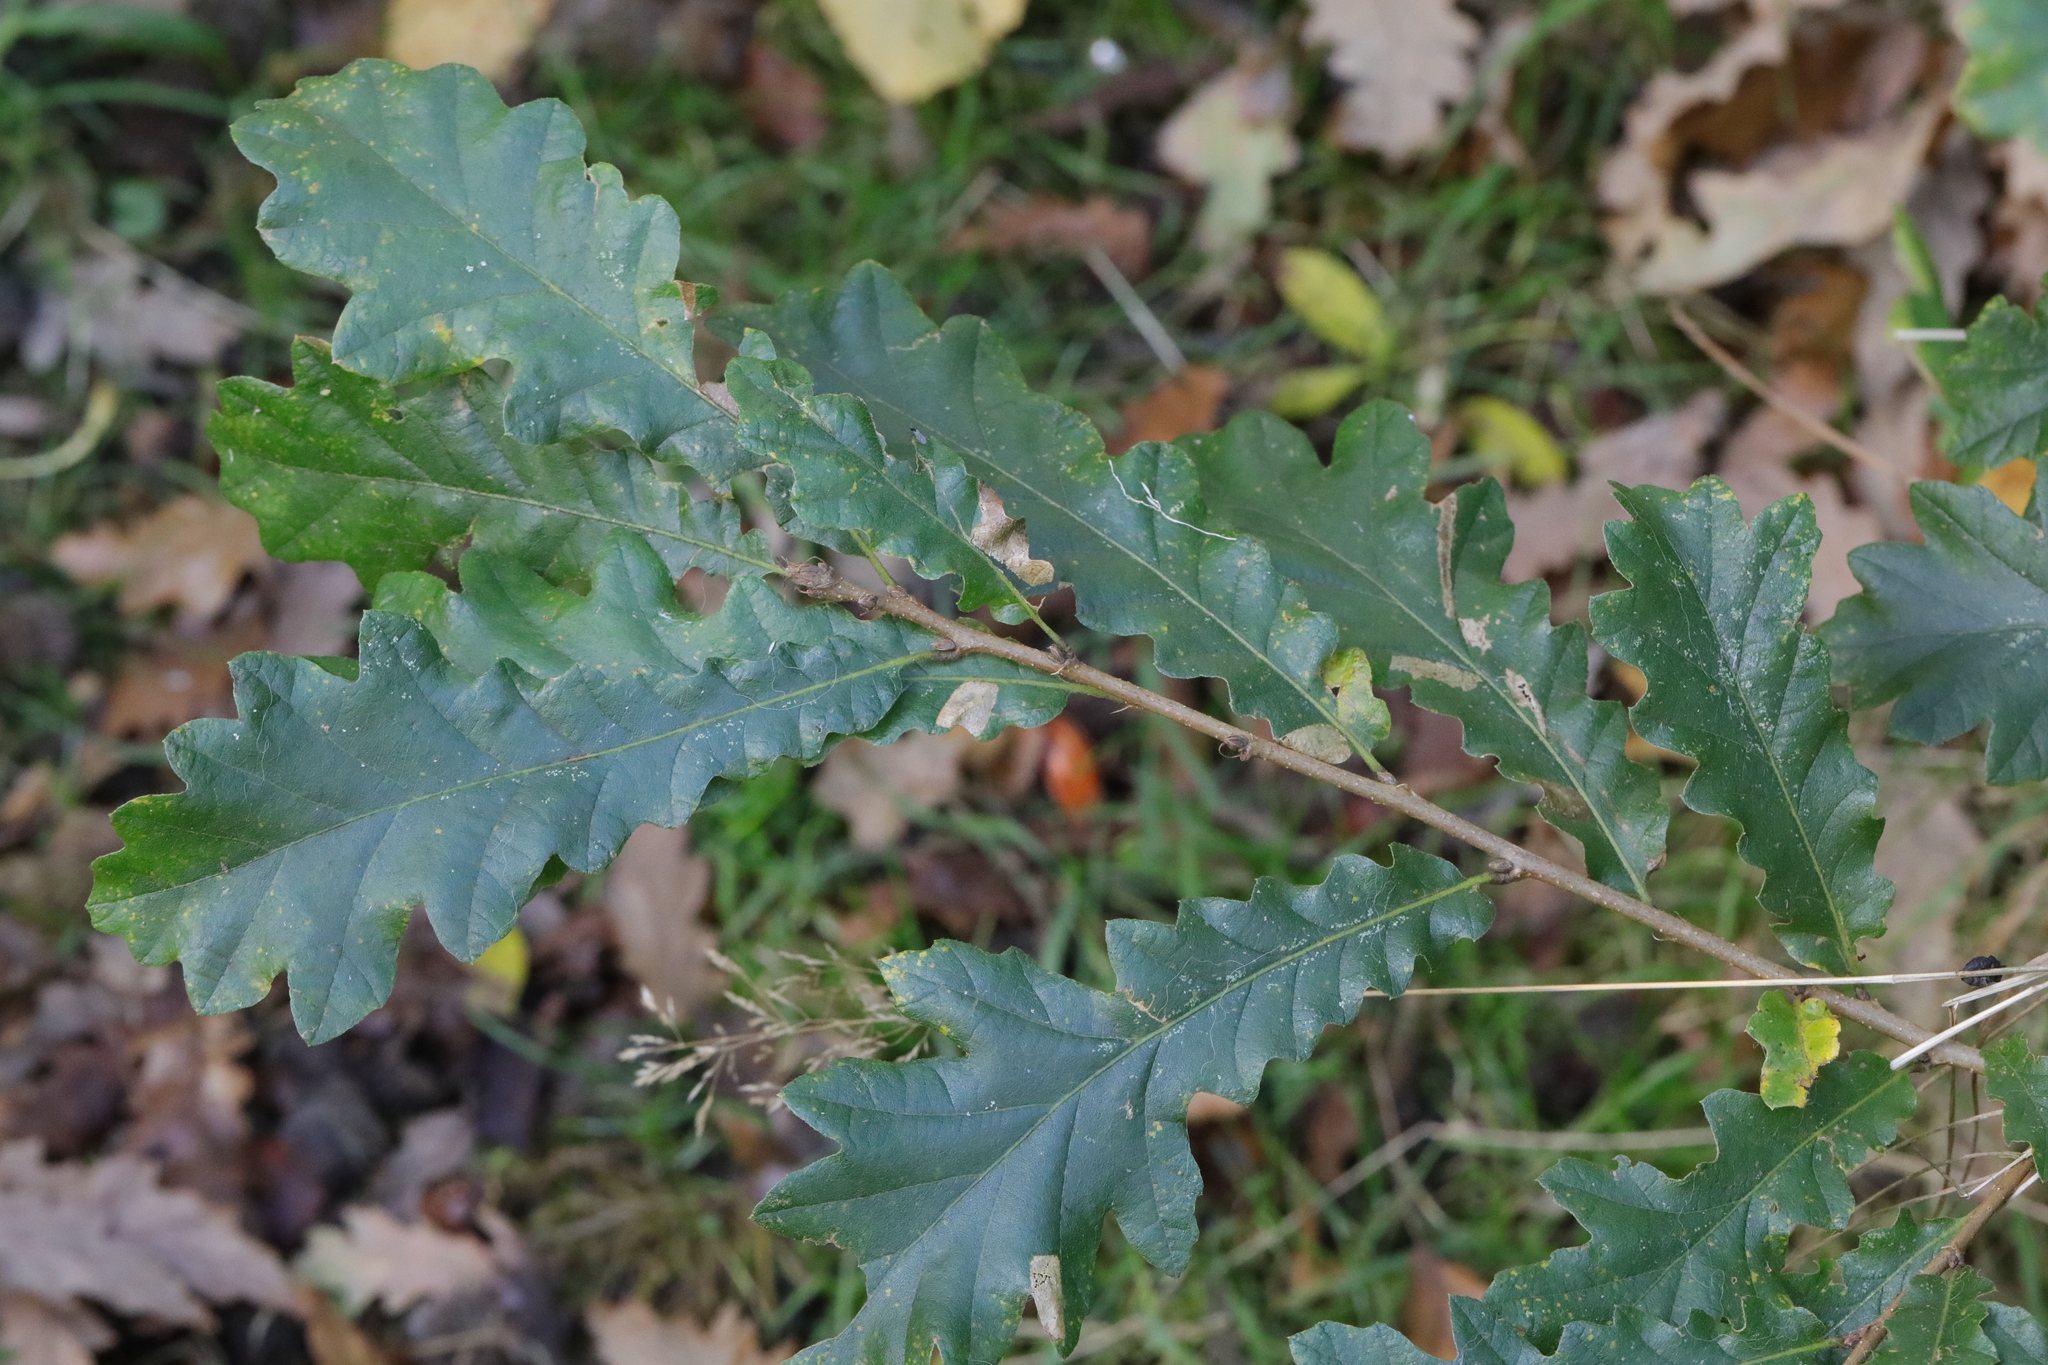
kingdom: Plantae
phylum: Tracheophyta
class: Magnoliopsida
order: Fagales
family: Fagaceae
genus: Quercus
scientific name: Quercus cerris
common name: Turkey oak
